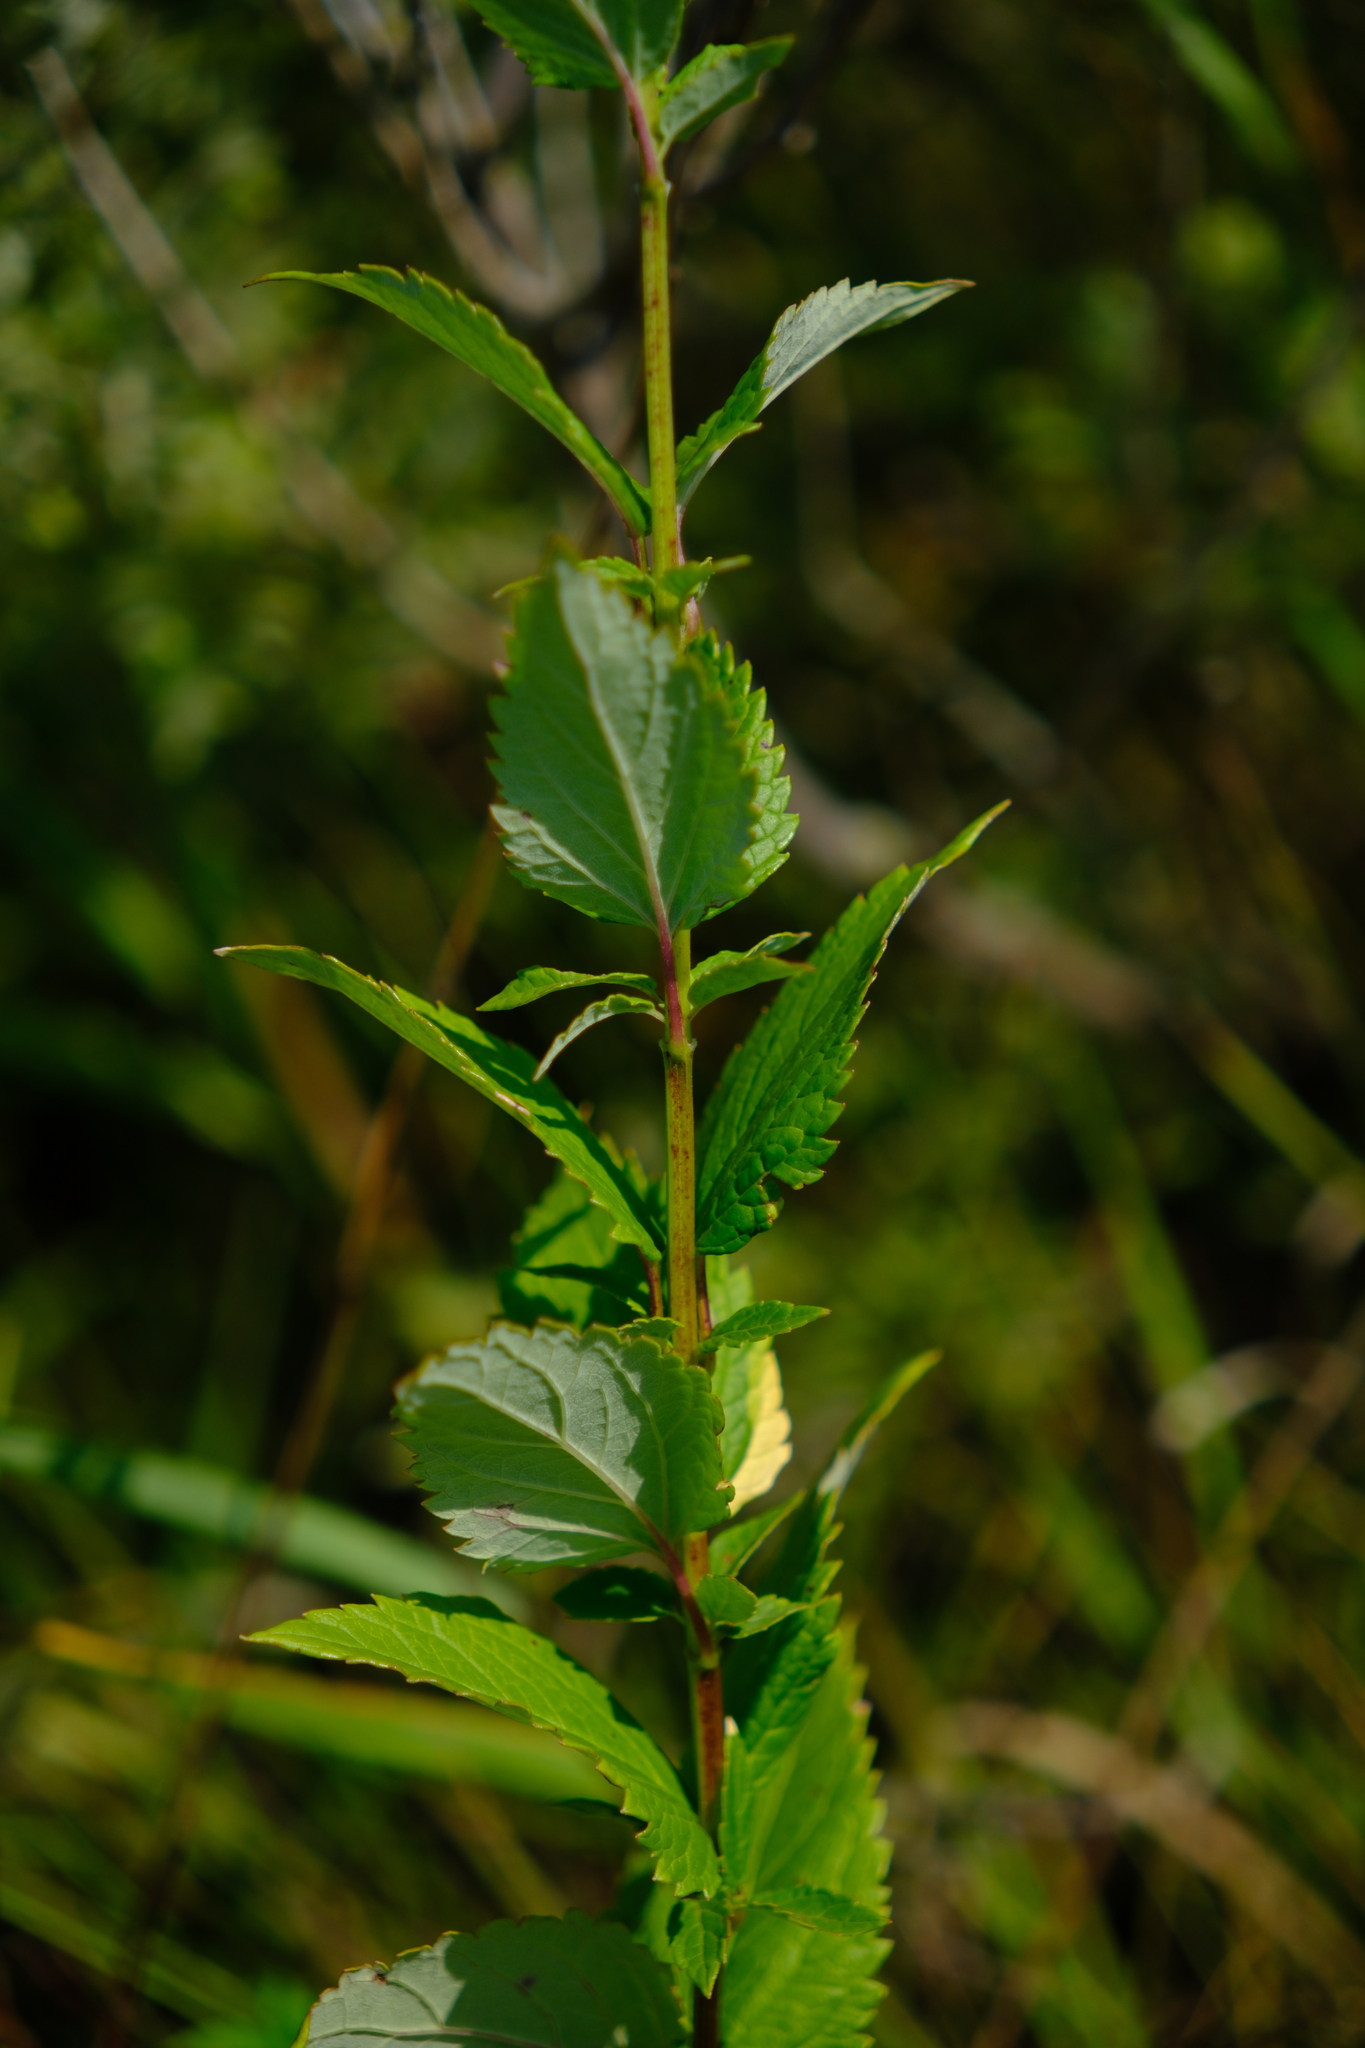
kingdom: Plantae
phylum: Tracheophyta
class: Magnoliopsida
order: Lamiales
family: Lamiaceae
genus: Agastache
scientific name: Agastache foeniculum
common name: Anise hyssop
